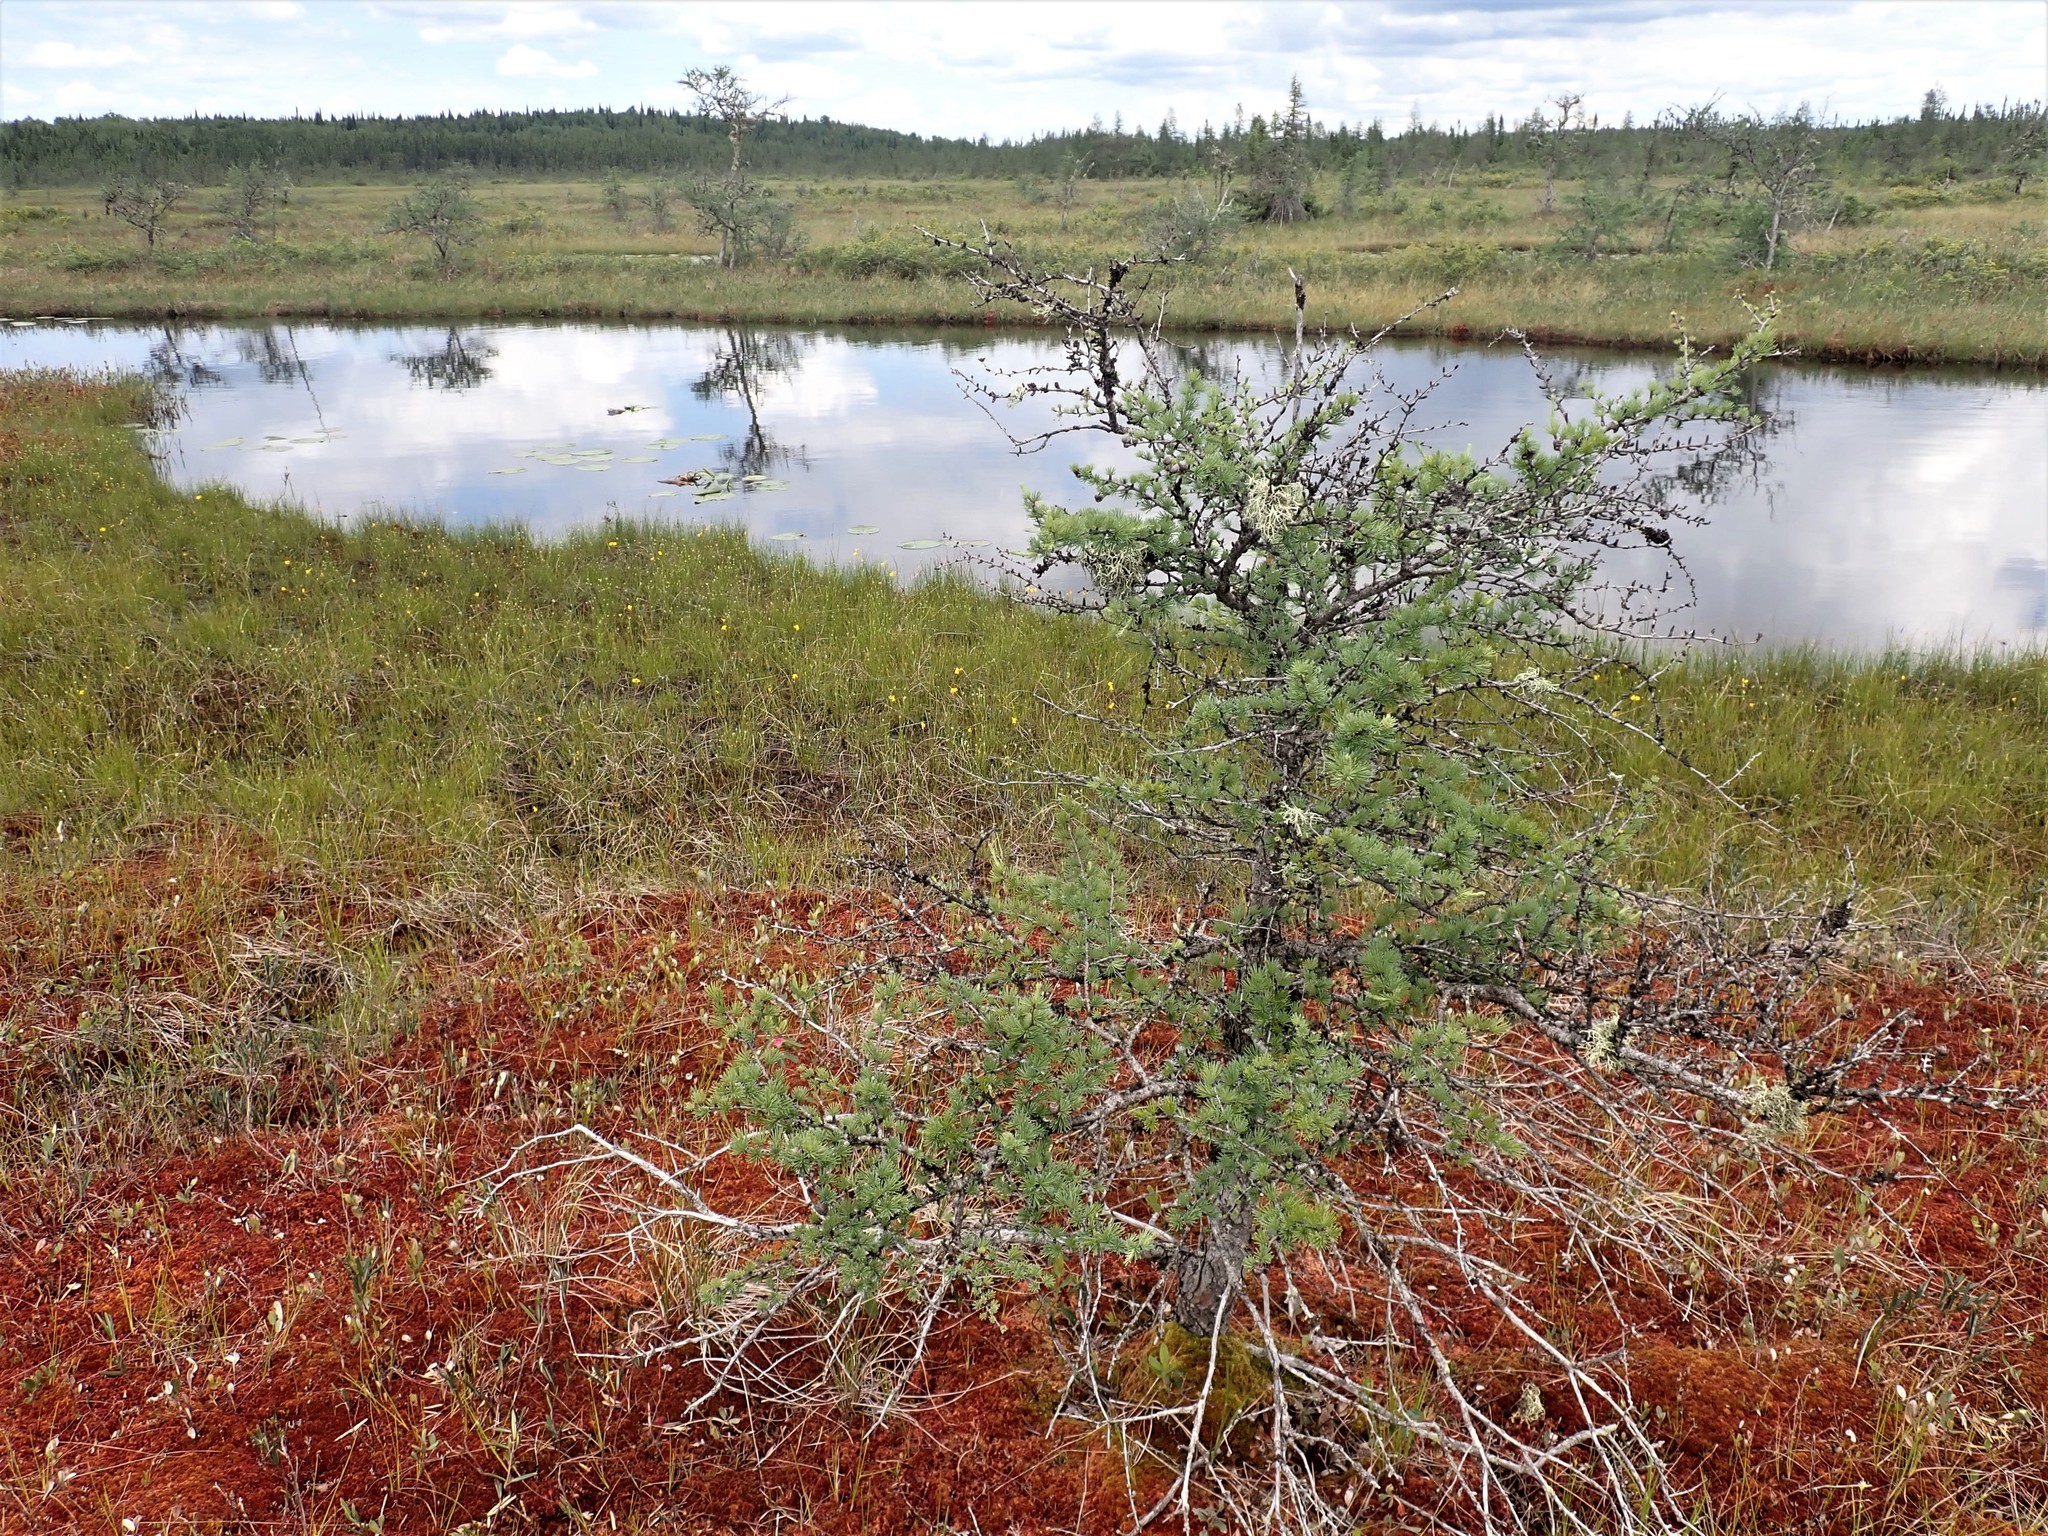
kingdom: Plantae
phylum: Tracheophyta
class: Pinopsida
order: Pinales
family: Pinaceae
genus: Larix
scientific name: Larix laricina
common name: American larch
